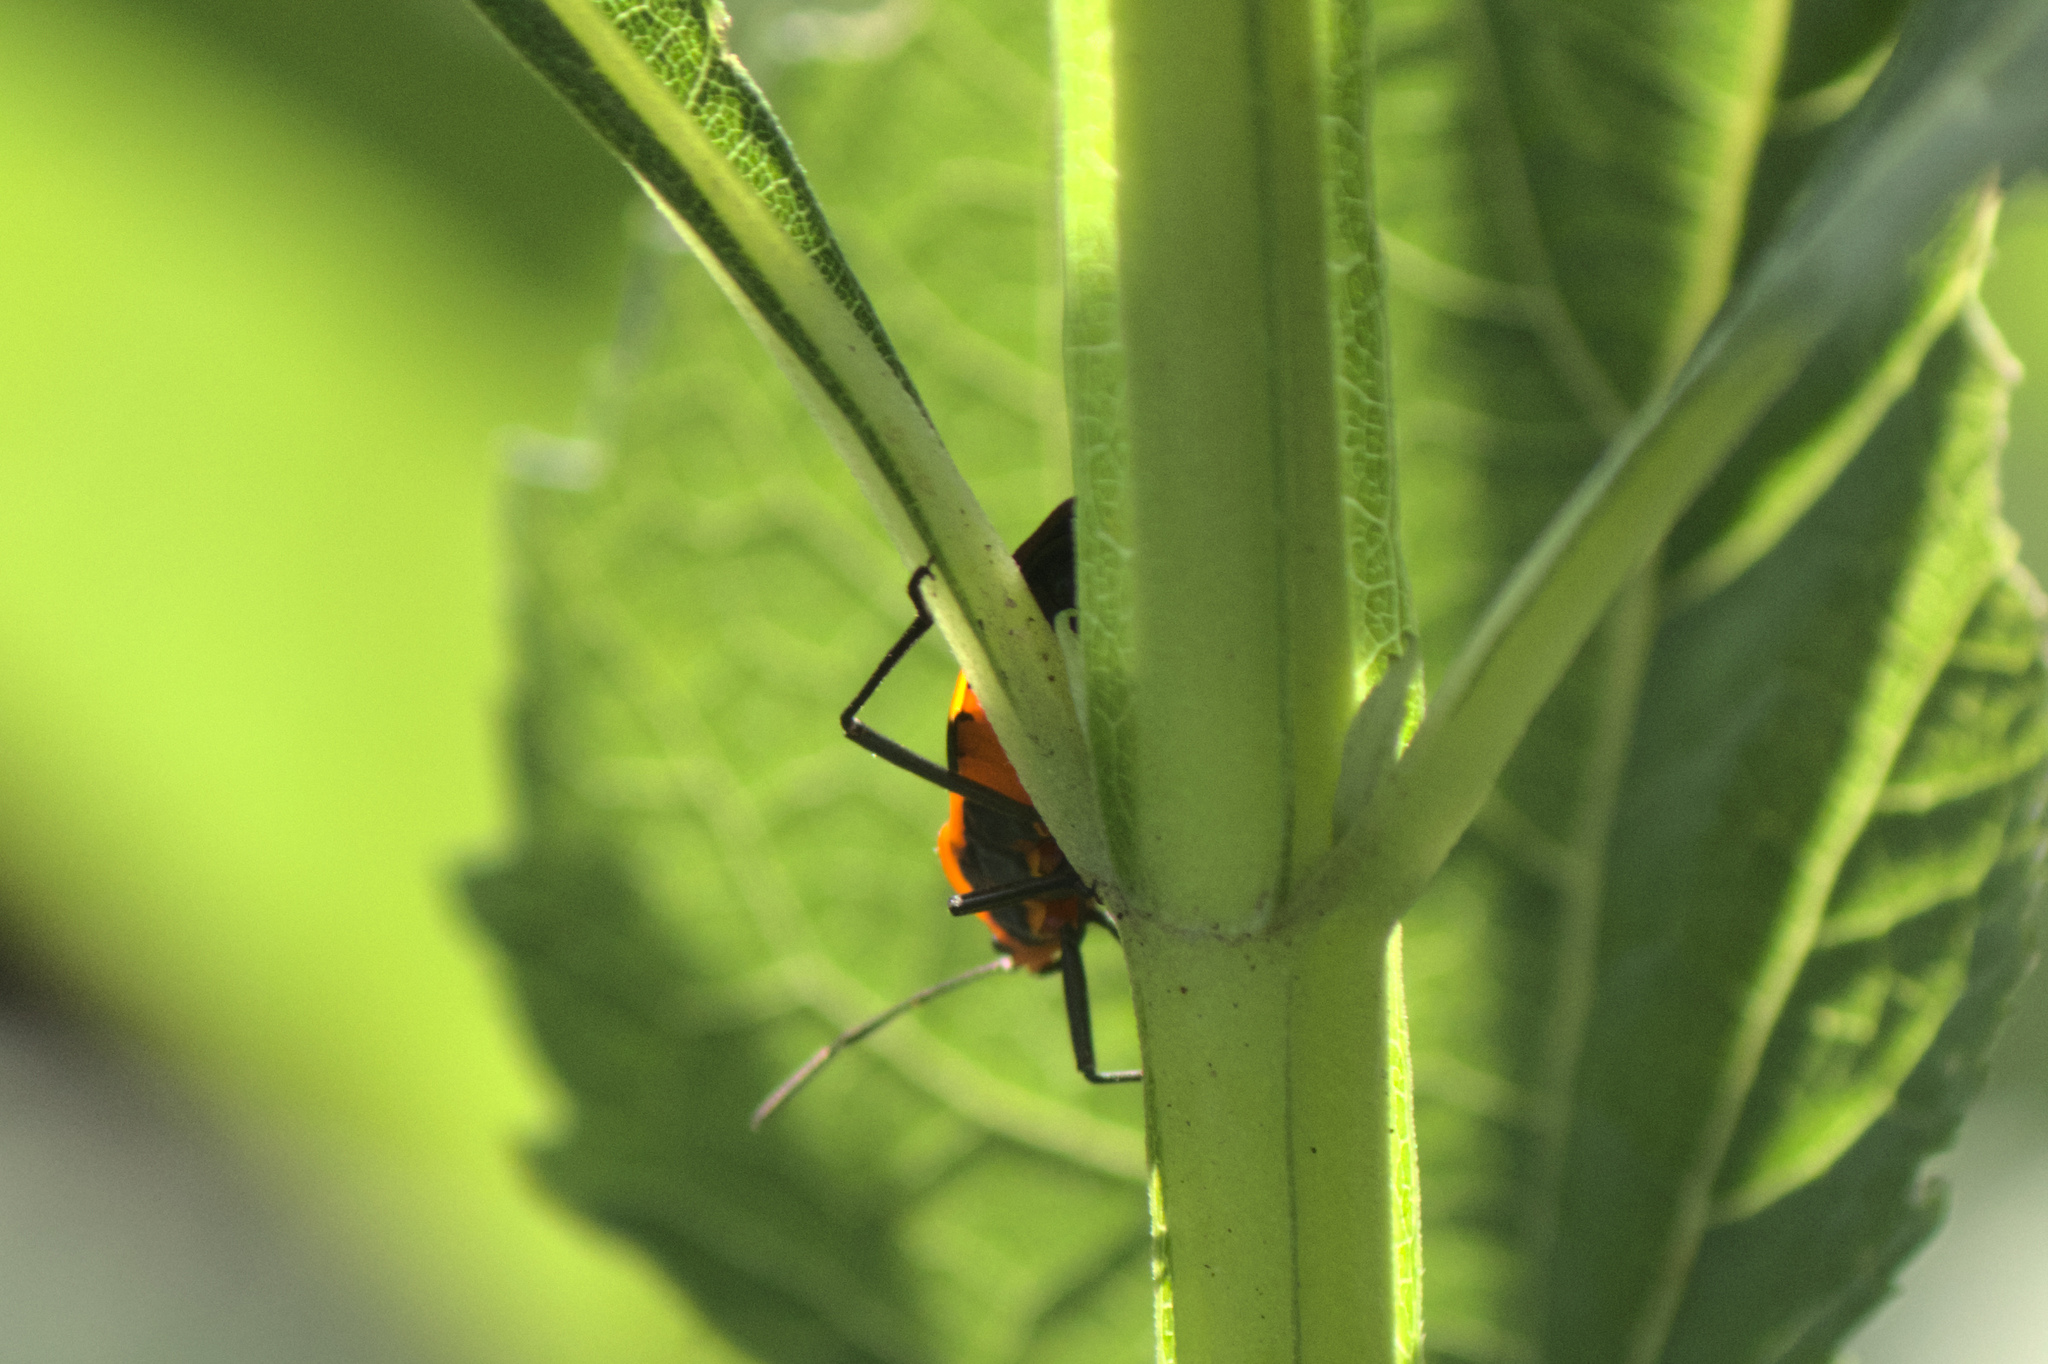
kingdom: Animalia
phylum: Arthropoda
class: Insecta
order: Hemiptera
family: Lygaeidae
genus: Oncopeltus
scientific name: Oncopeltus fasciatus
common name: Large milkweed bug
